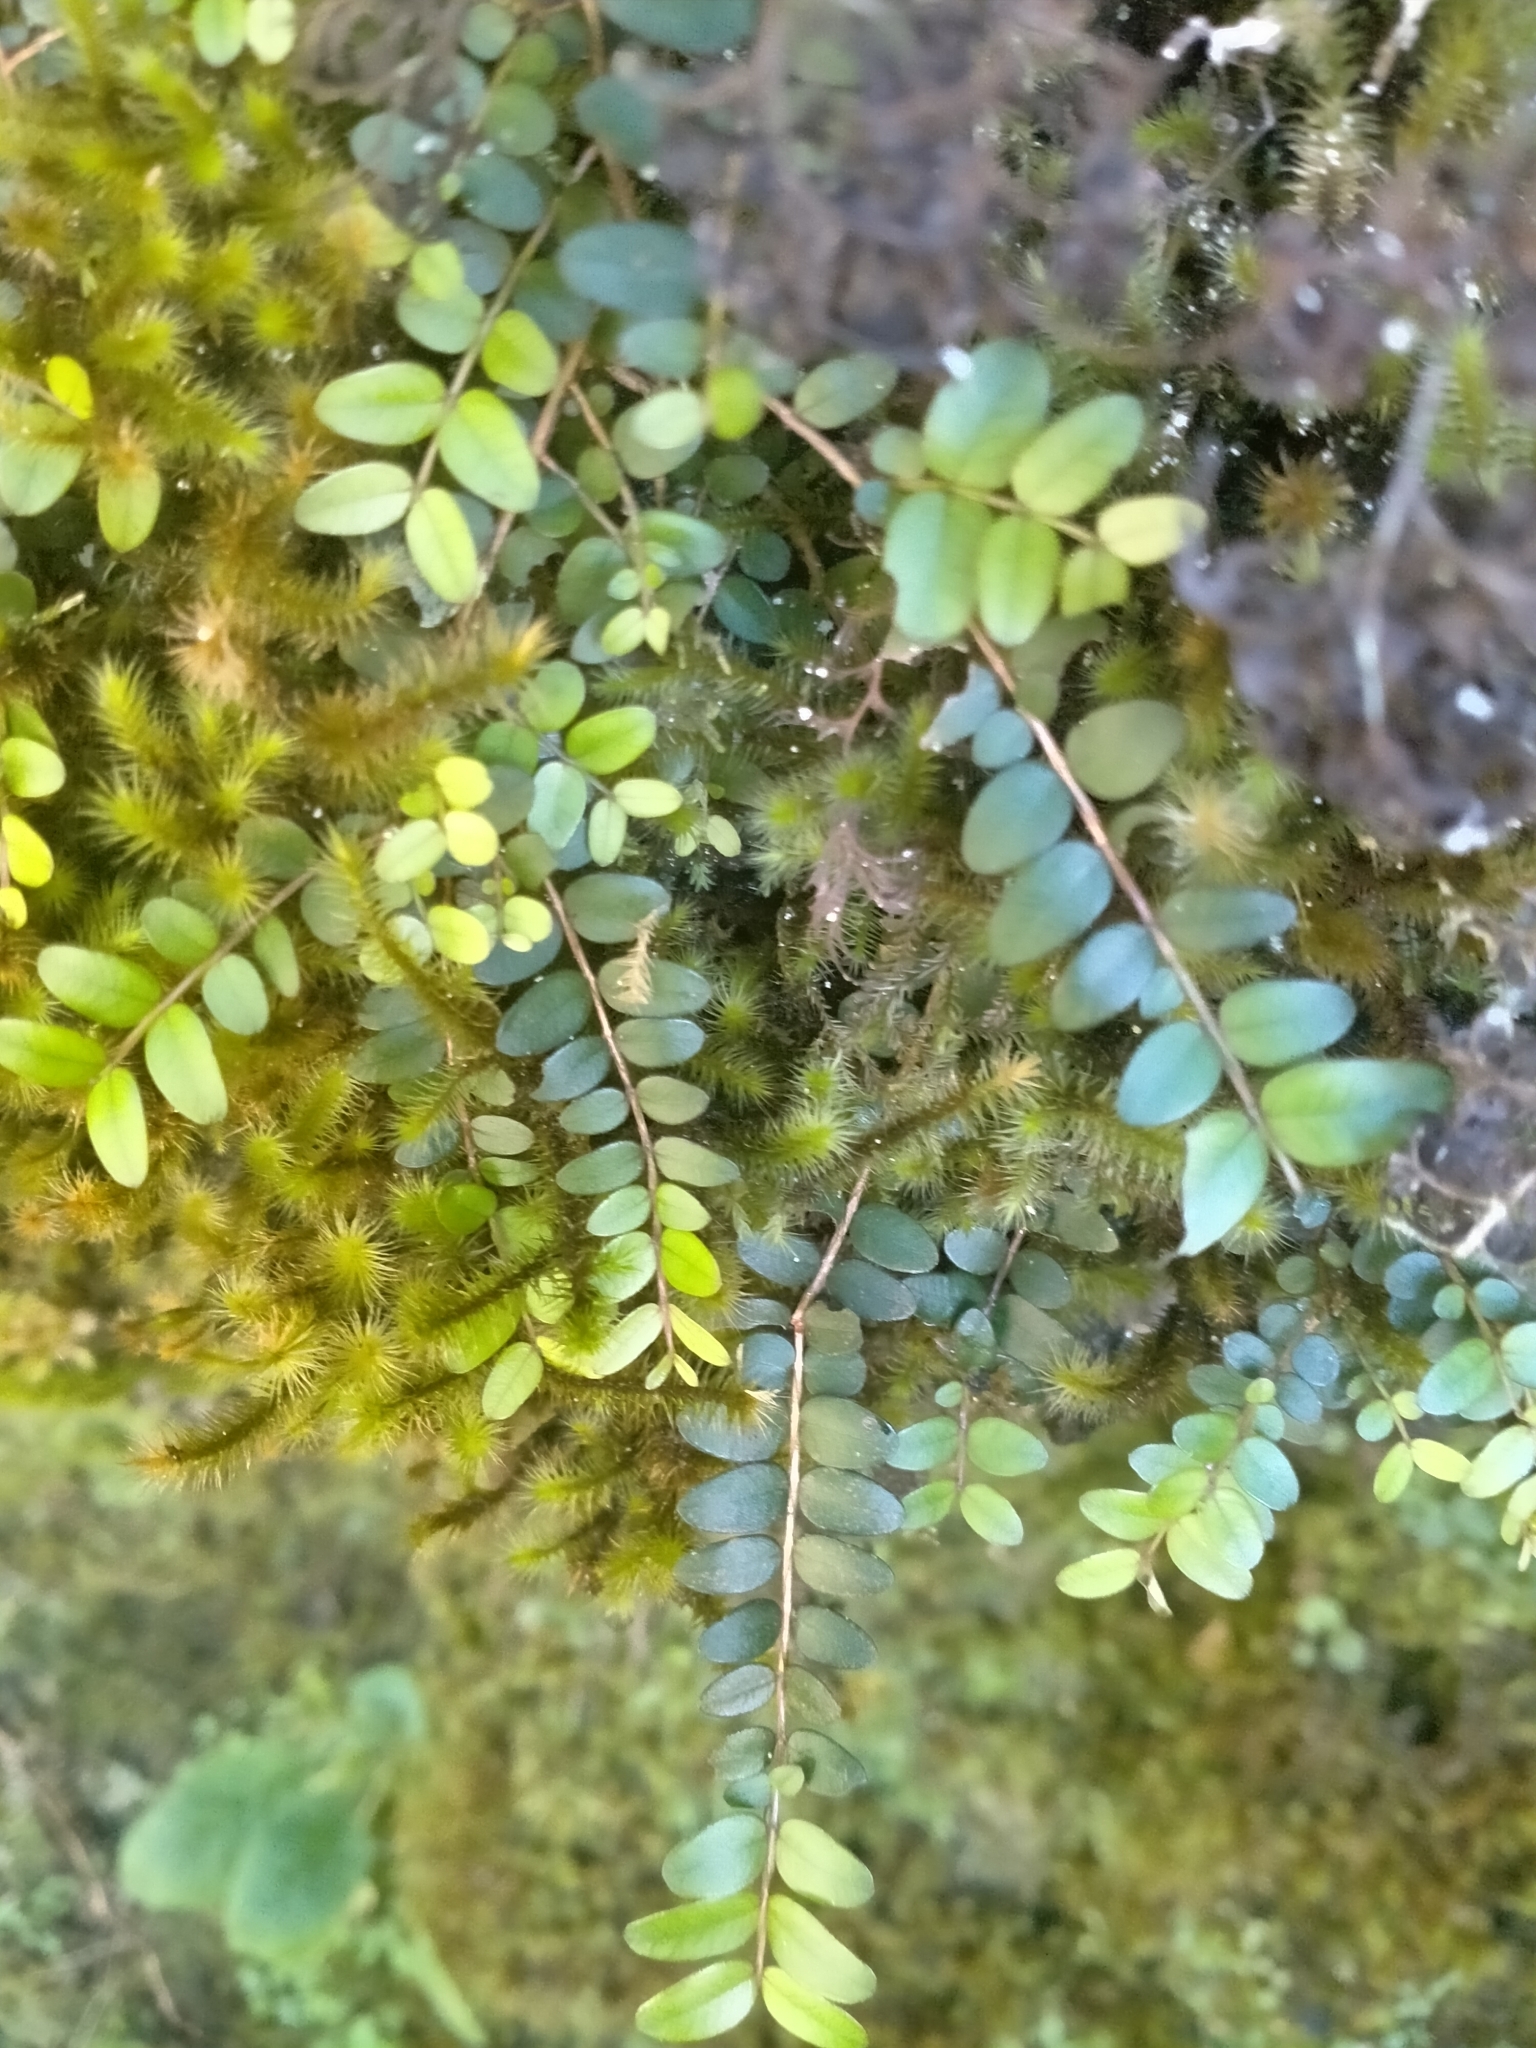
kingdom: Plantae
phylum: Tracheophyta
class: Magnoliopsida
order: Myrtales
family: Myrtaceae
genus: Metrosideros
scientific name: Metrosideros diffusa
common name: Small ratavine
